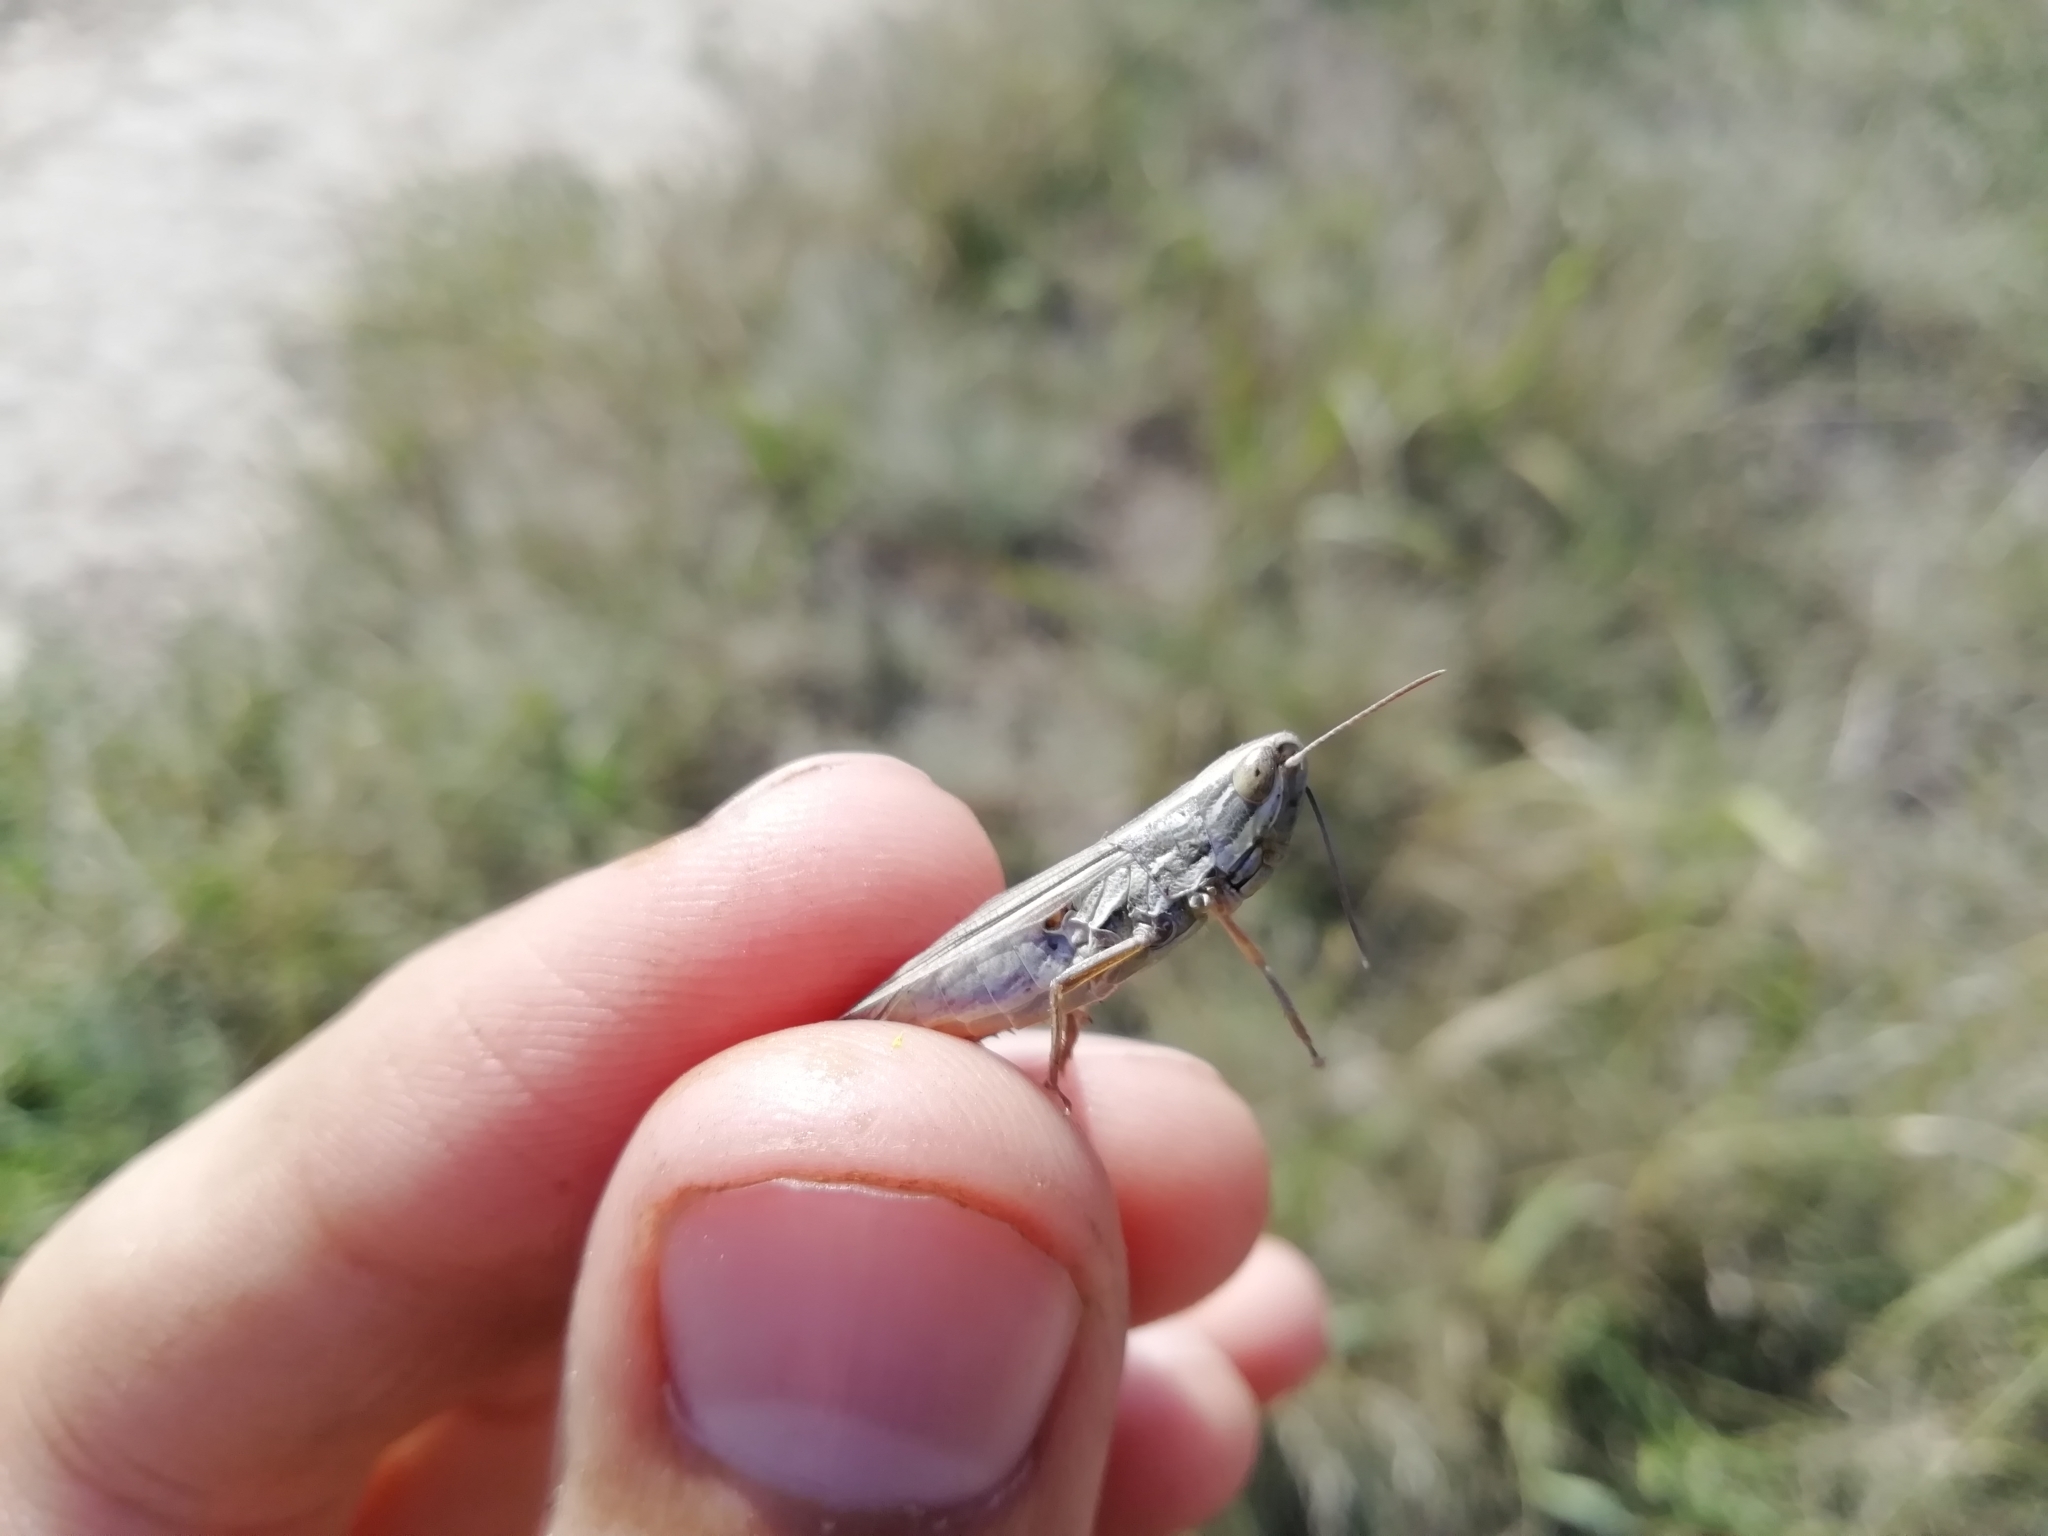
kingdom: Animalia
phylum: Arthropoda
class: Insecta
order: Orthoptera
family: Acrididae
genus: Euchorthippus
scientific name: Euchorthippus pulvinatus
